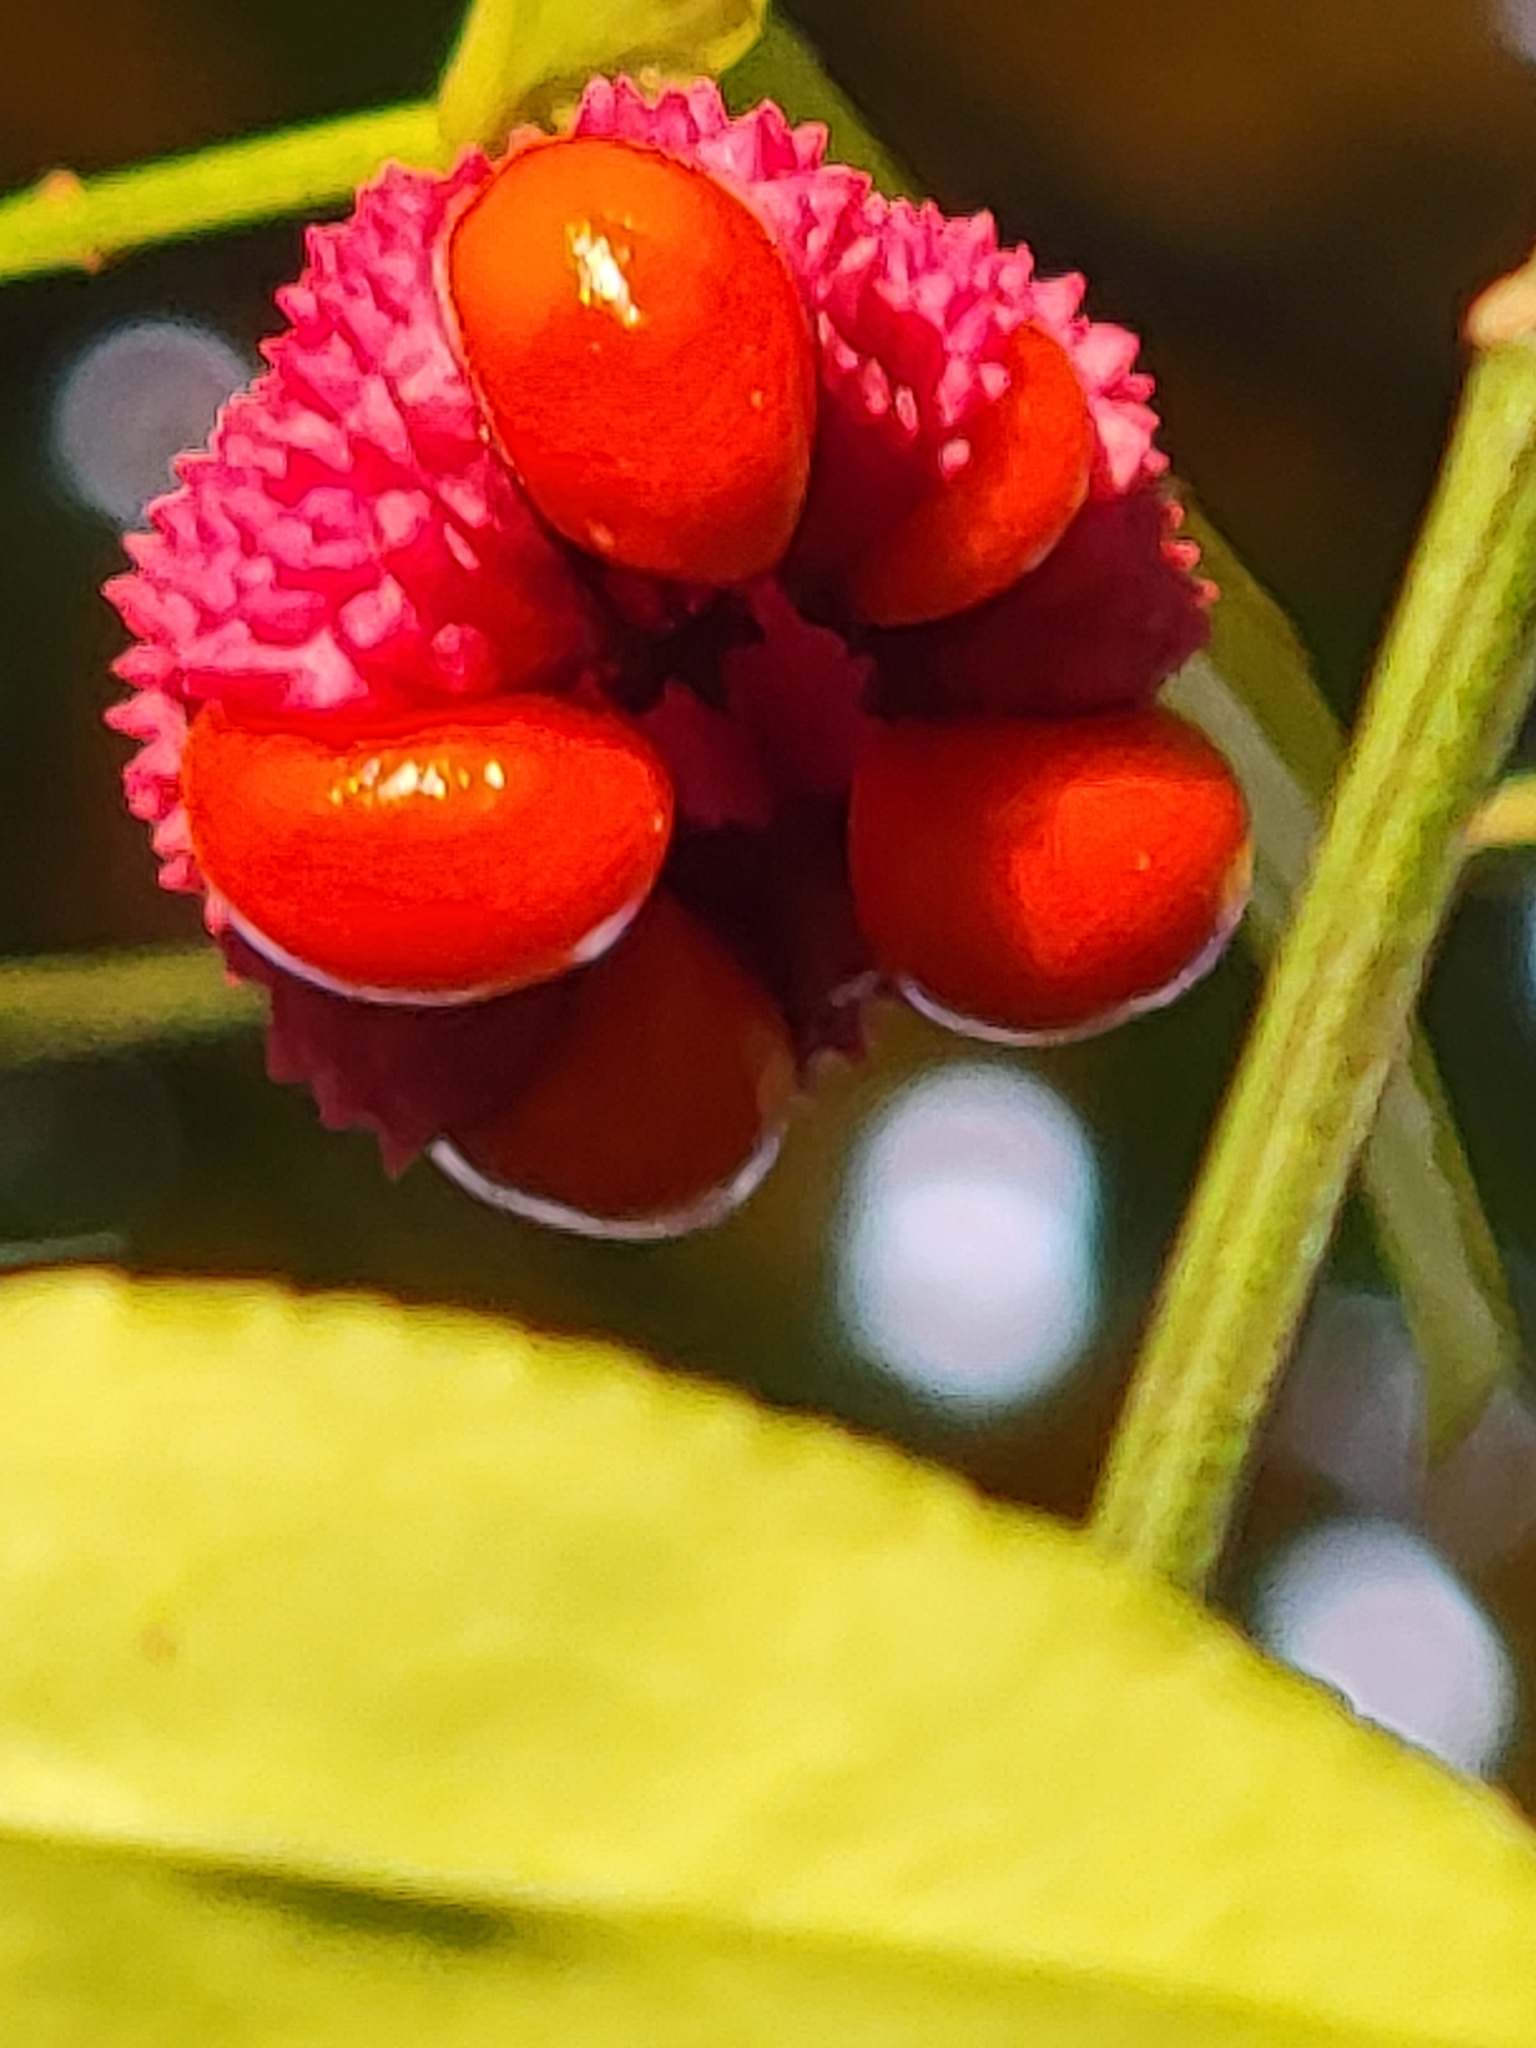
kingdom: Plantae
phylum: Tracheophyta
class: Magnoliopsida
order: Celastrales
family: Celastraceae
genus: Euonymus
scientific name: Euonymus americanus
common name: Bursting-heart
